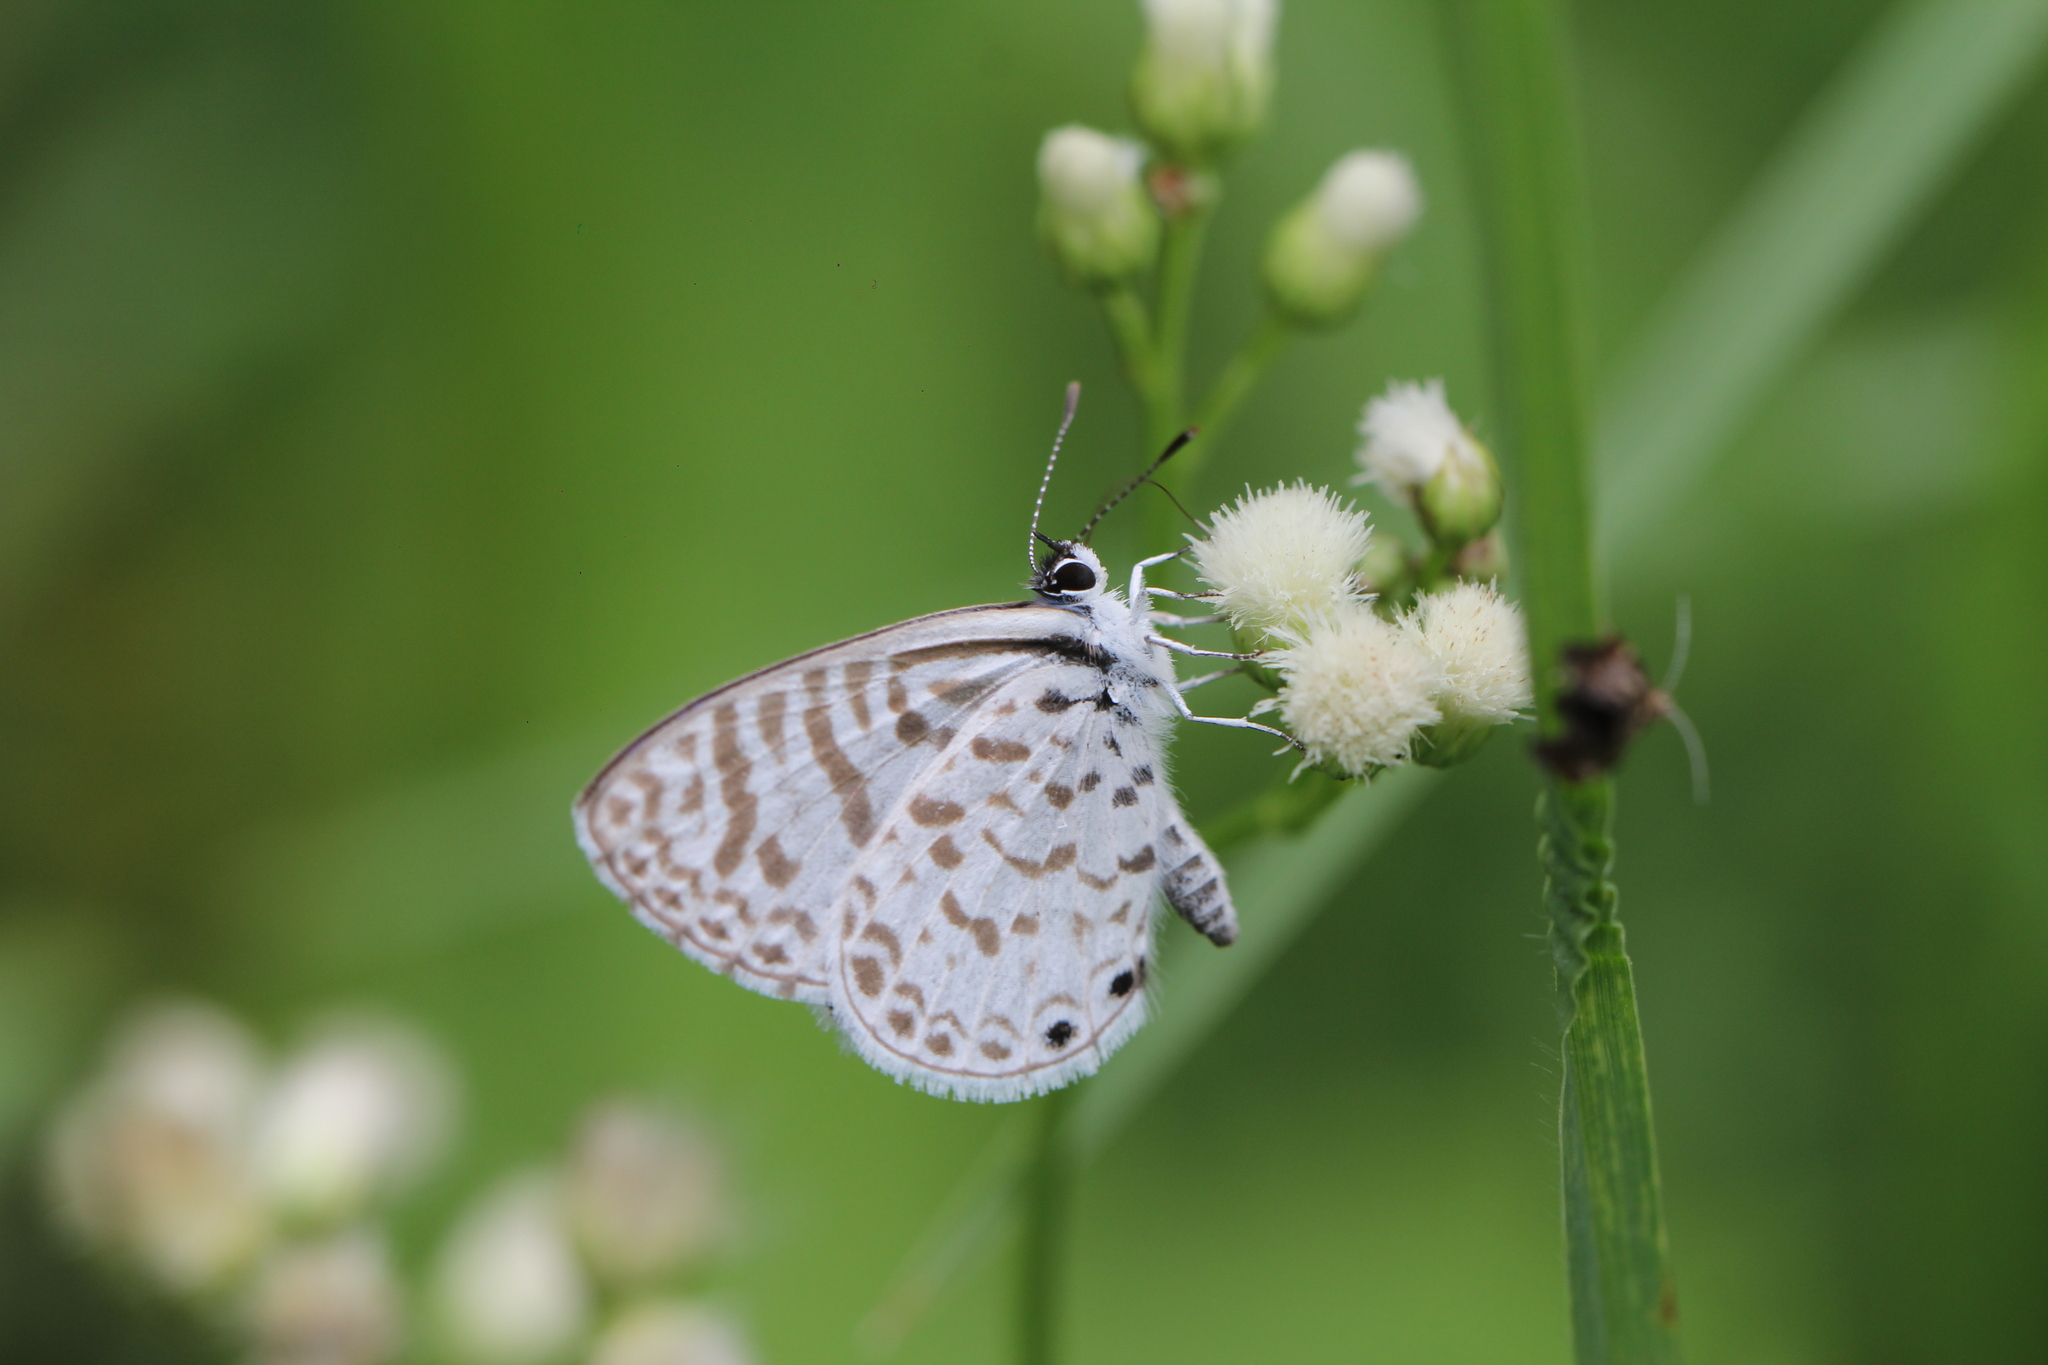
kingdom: Animalia
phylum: Arthropoda
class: Insecta
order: Lepidoptera
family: Lycaenidae
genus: Leptotes
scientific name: Leptotes cassius
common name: Cassius blue
